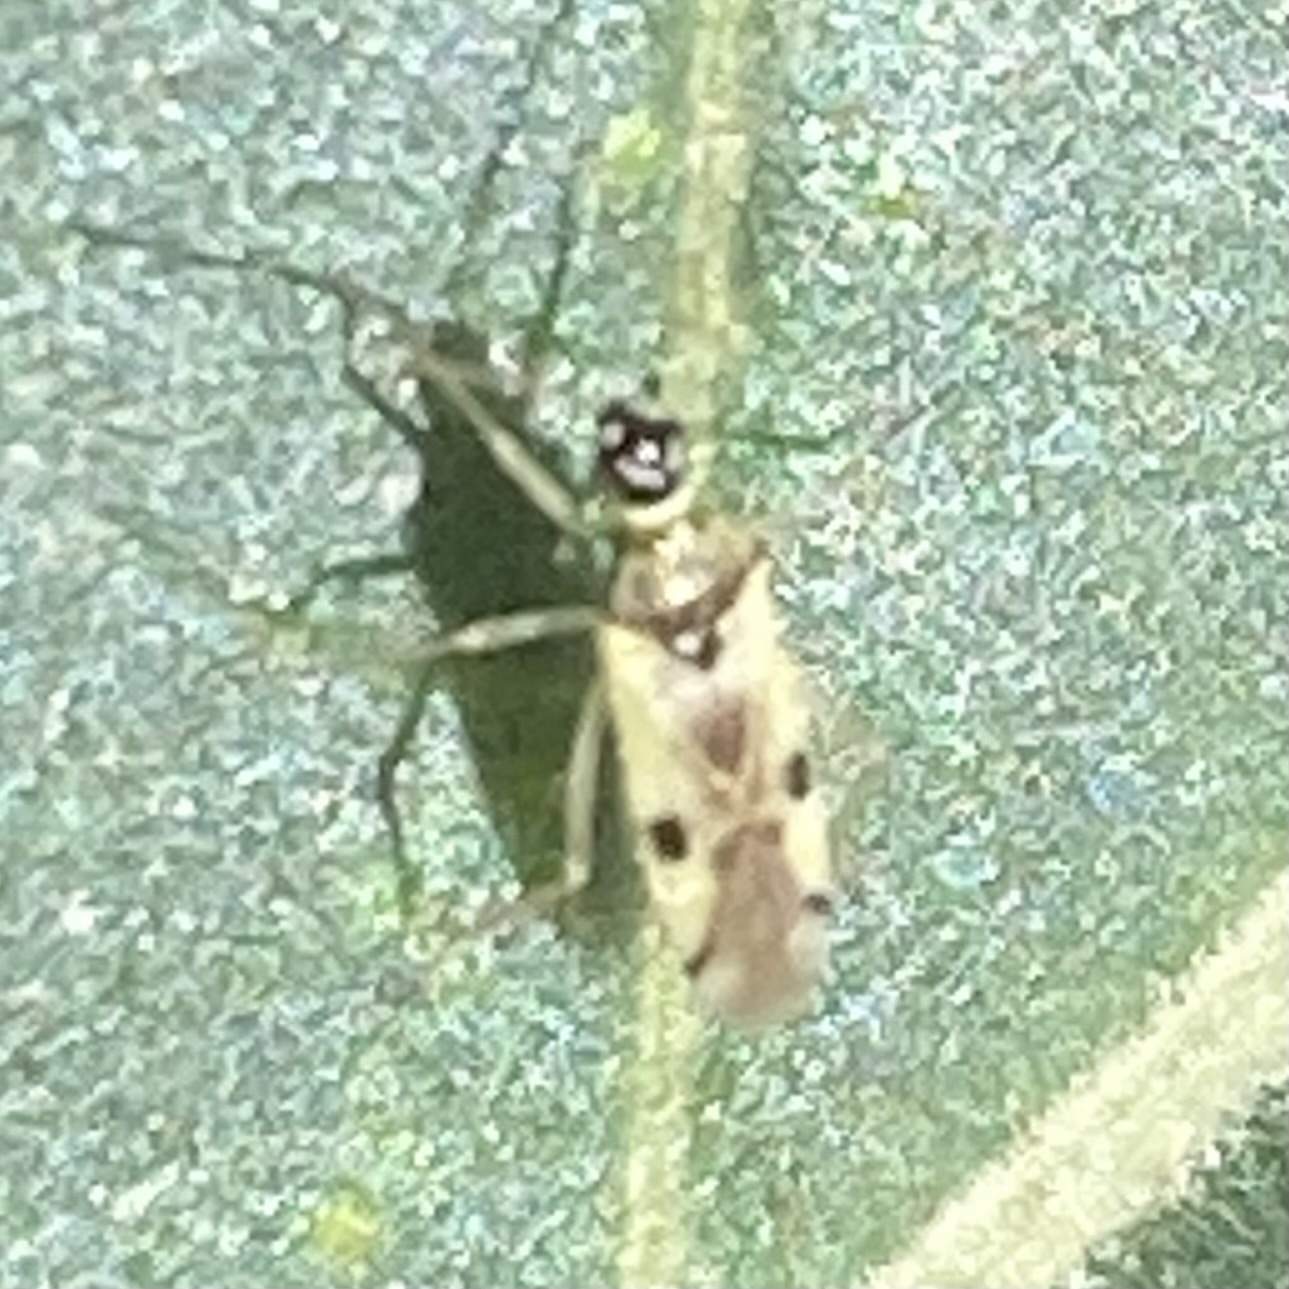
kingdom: Animalia
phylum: Arthropoda
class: Insecta
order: Hemiptera
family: Miridae
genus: Tupiocoris
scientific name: Tupiocoris notatus
